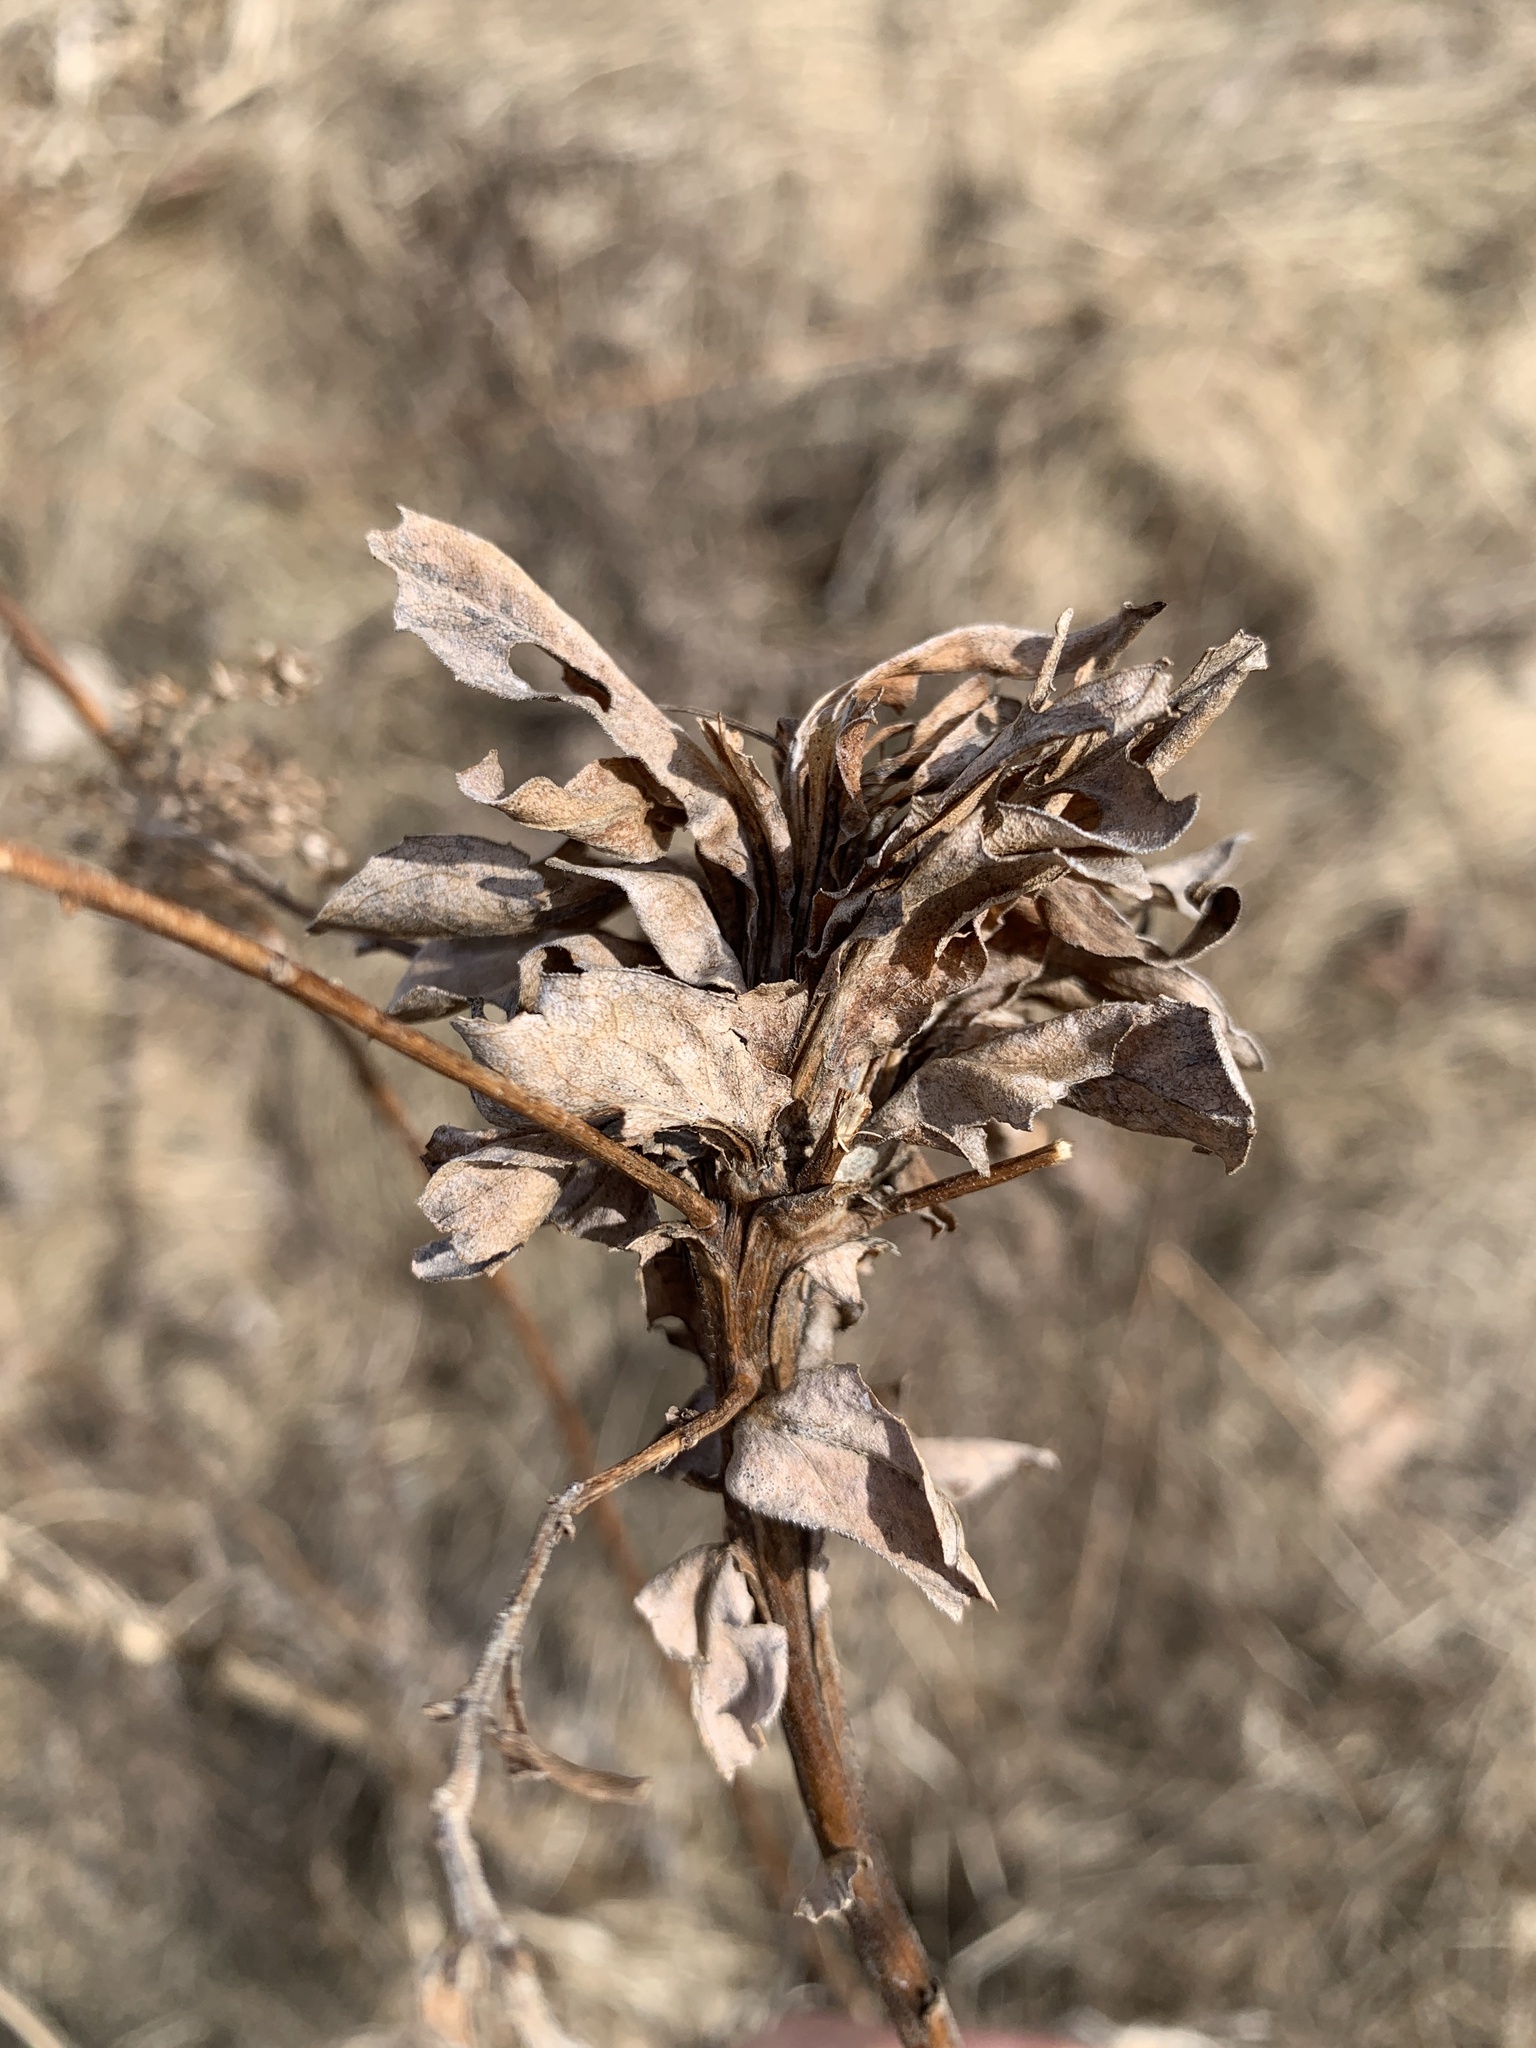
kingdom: Animalia
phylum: Arthropoda
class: Insecta
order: Diptera
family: Cecidomyiidae
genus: Rhopalomyia
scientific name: Rhopalomyia solidaginis
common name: Goldenrod bunch gall midge
